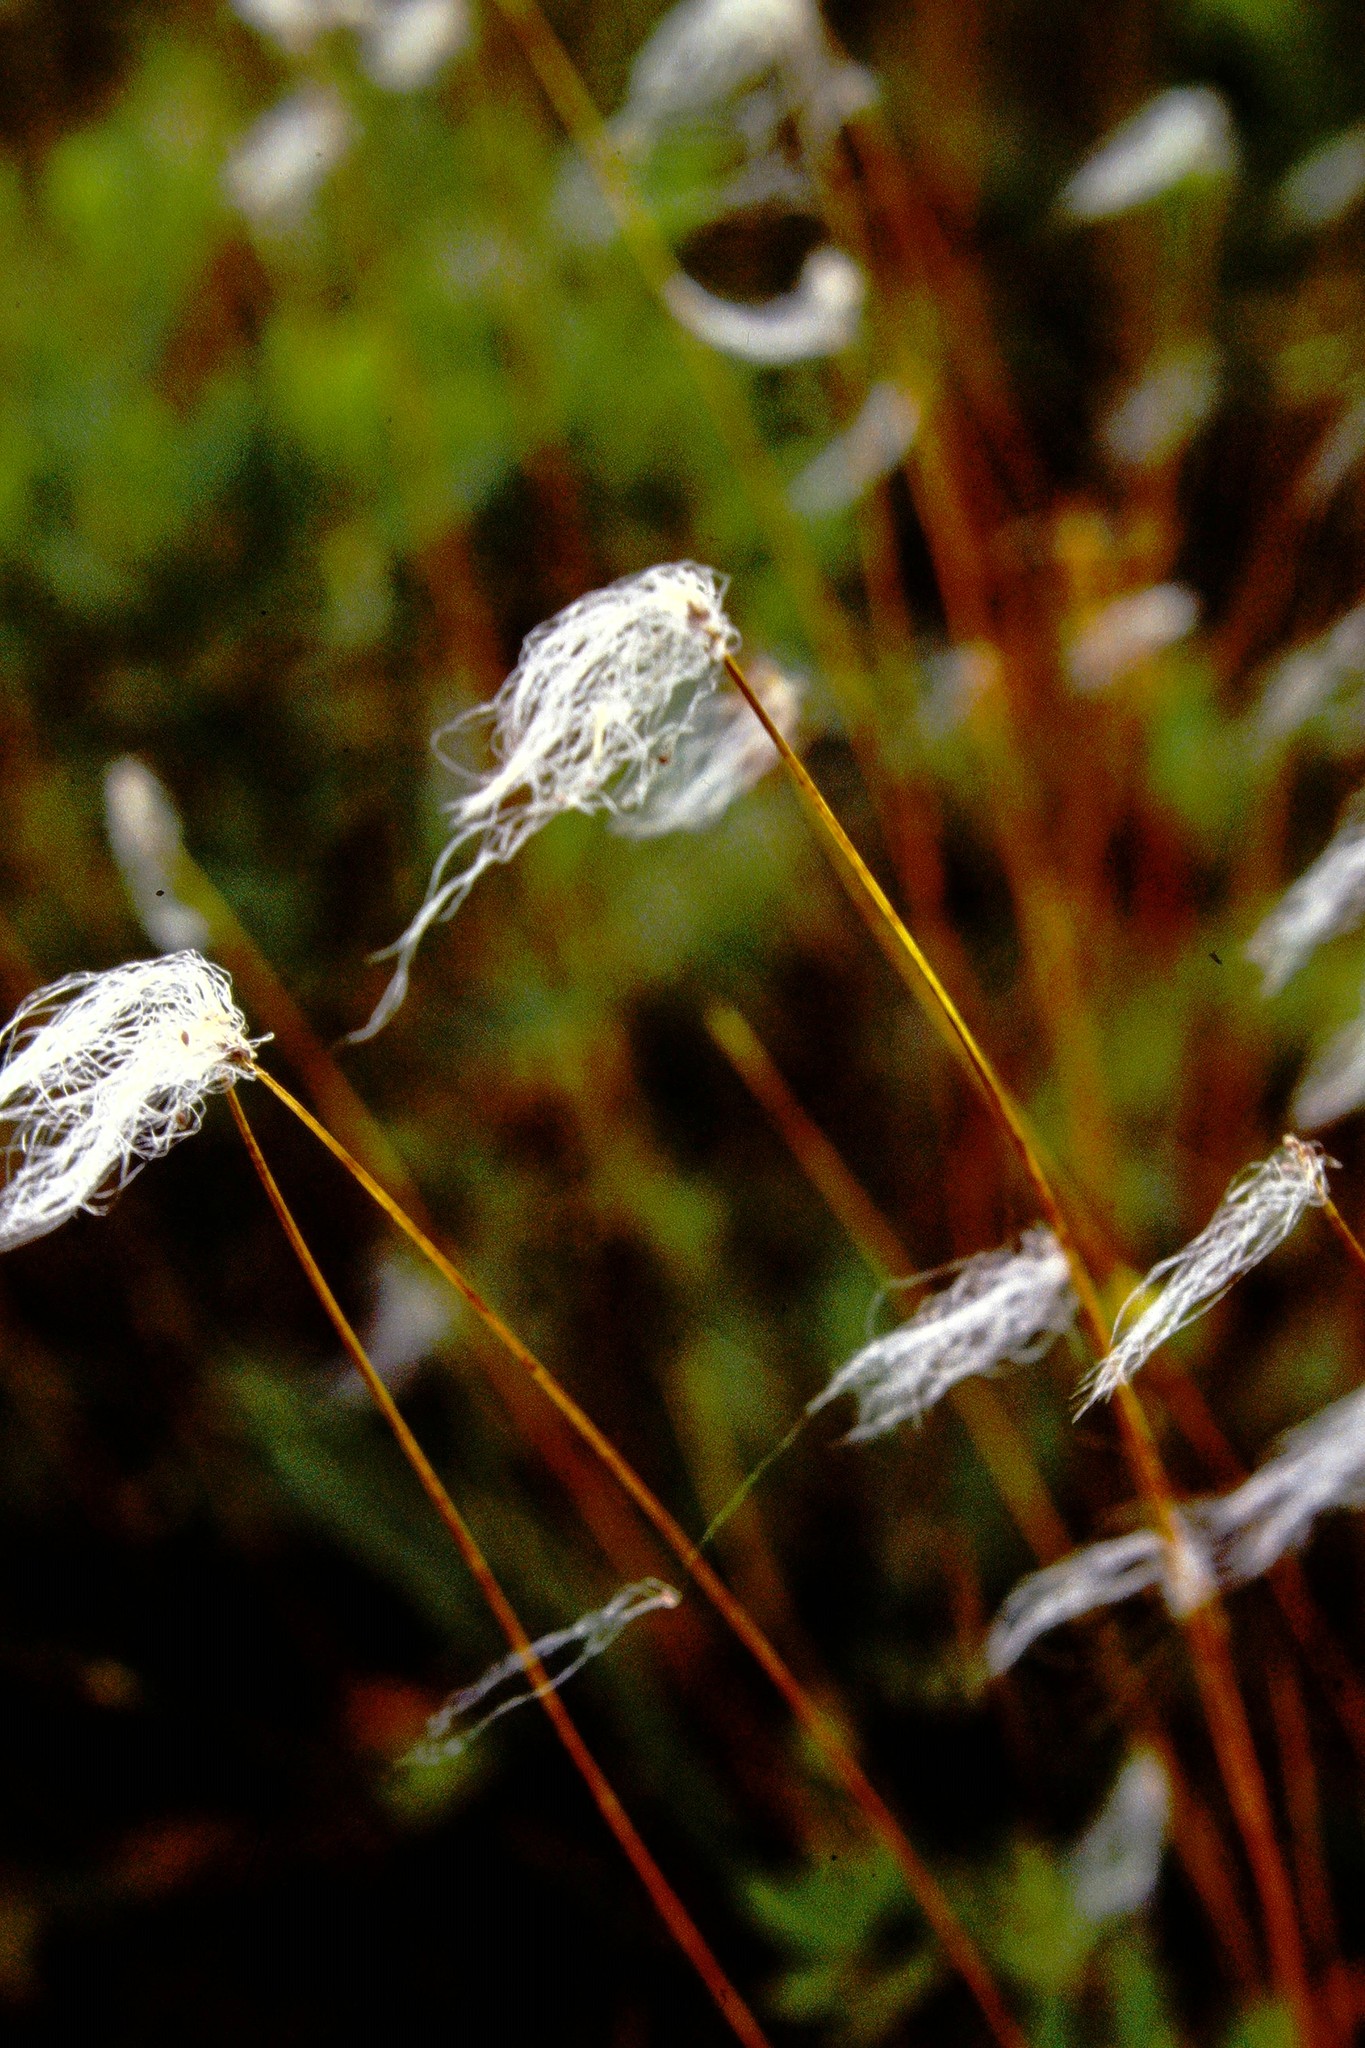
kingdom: Plantae
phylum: Tracheophyta
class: Liliopsida
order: Poales
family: Cyperaceae
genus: Trichophorum
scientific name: Trichophorum alpinum
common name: Alpine bulrush
